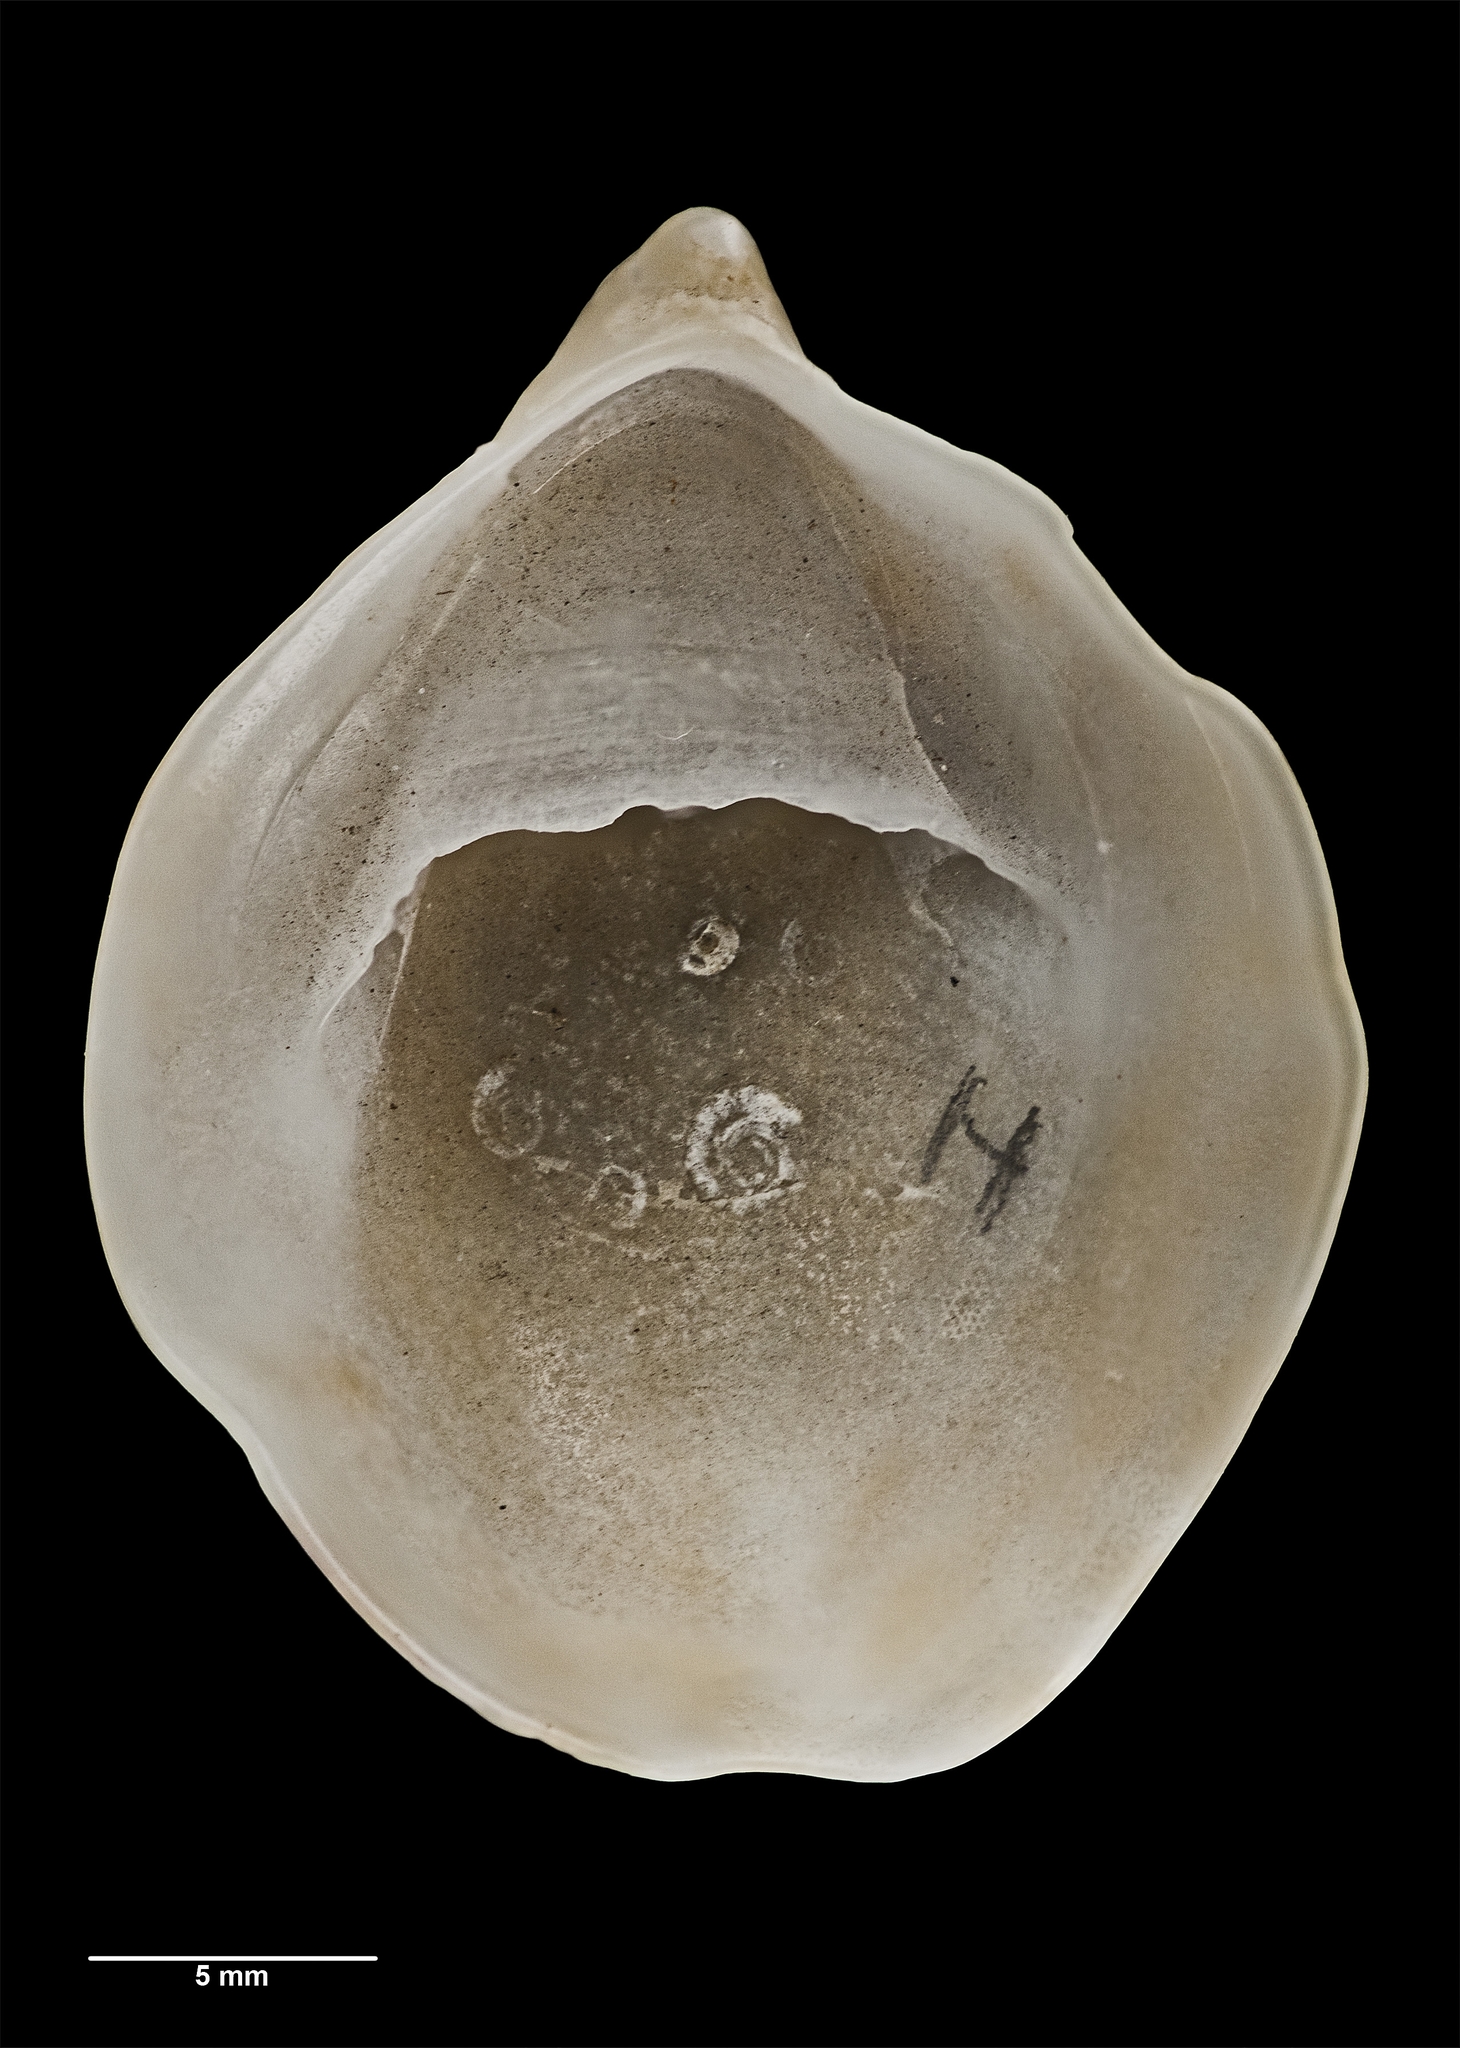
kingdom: Animalia
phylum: Mollusca
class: Gastropoda
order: Littorinimorpha
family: Calyptraeidae
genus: Maoricrypta
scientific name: Maoricrypta youngi
